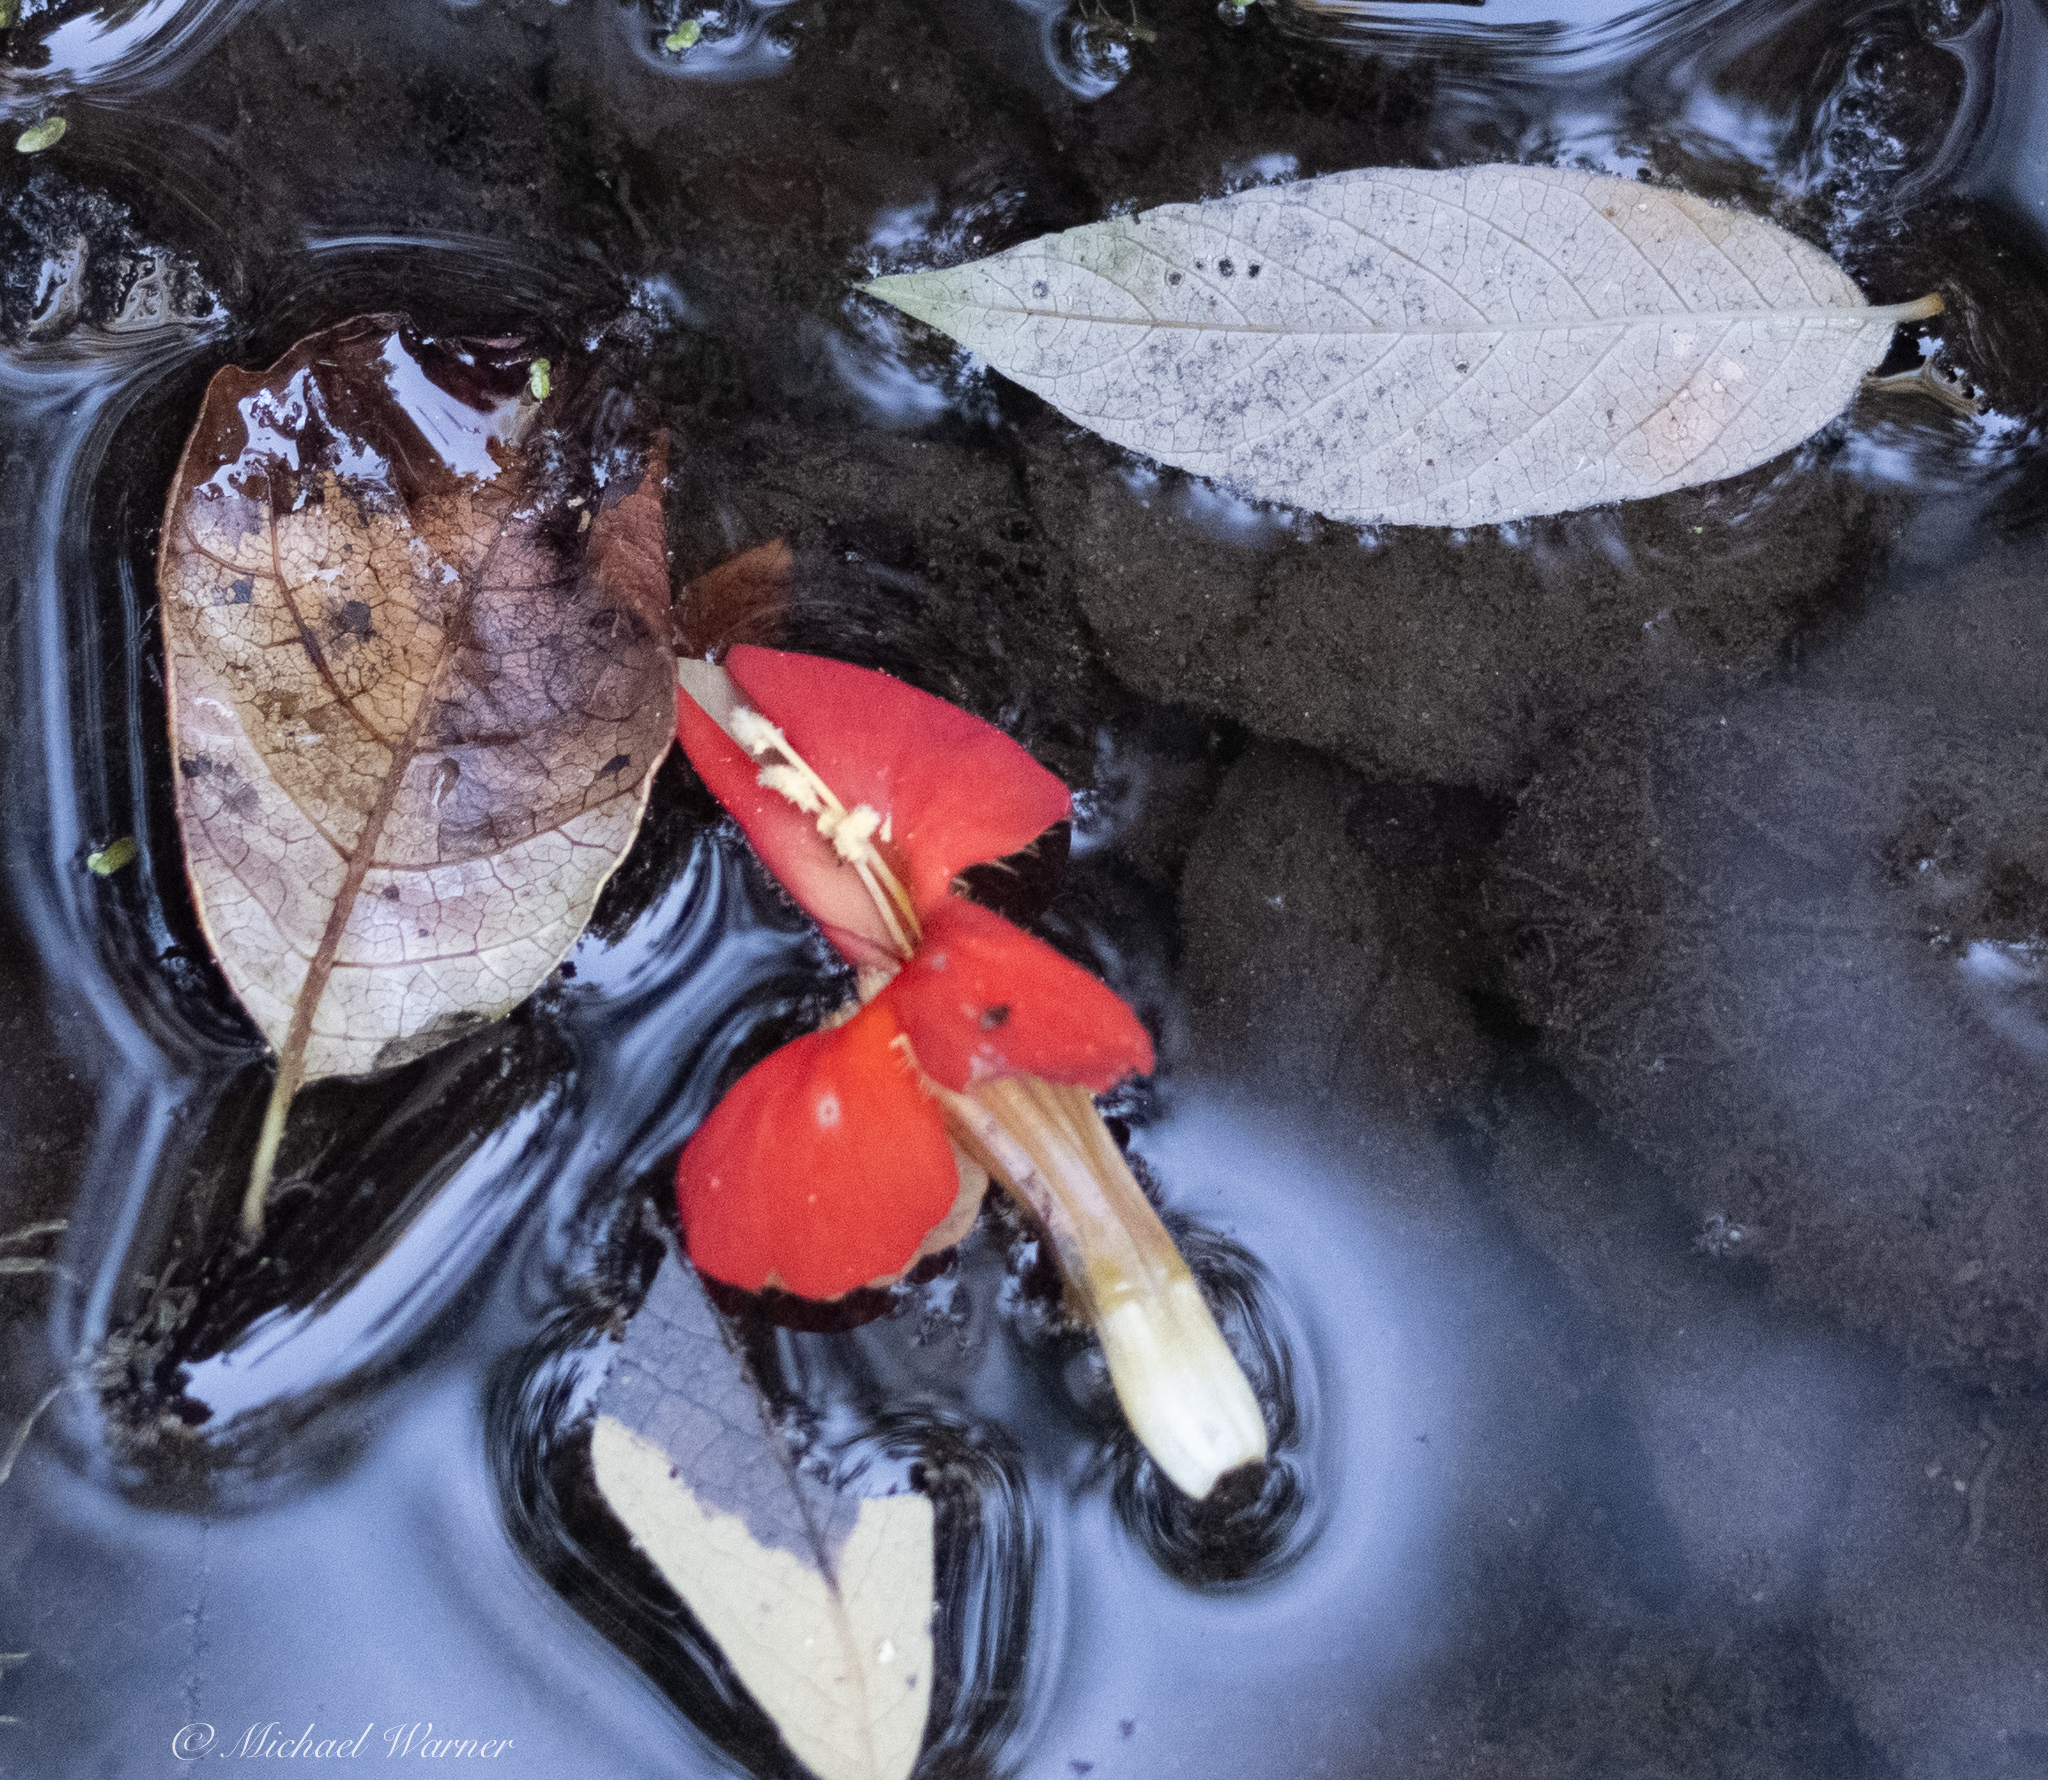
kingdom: Plantae
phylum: Tracheophyta
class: Magnoliopsida
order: Lamiales
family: Phrymaceae
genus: Erythranthe
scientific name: Erythranthe cardinalis
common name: Scarlet monkey-flower
